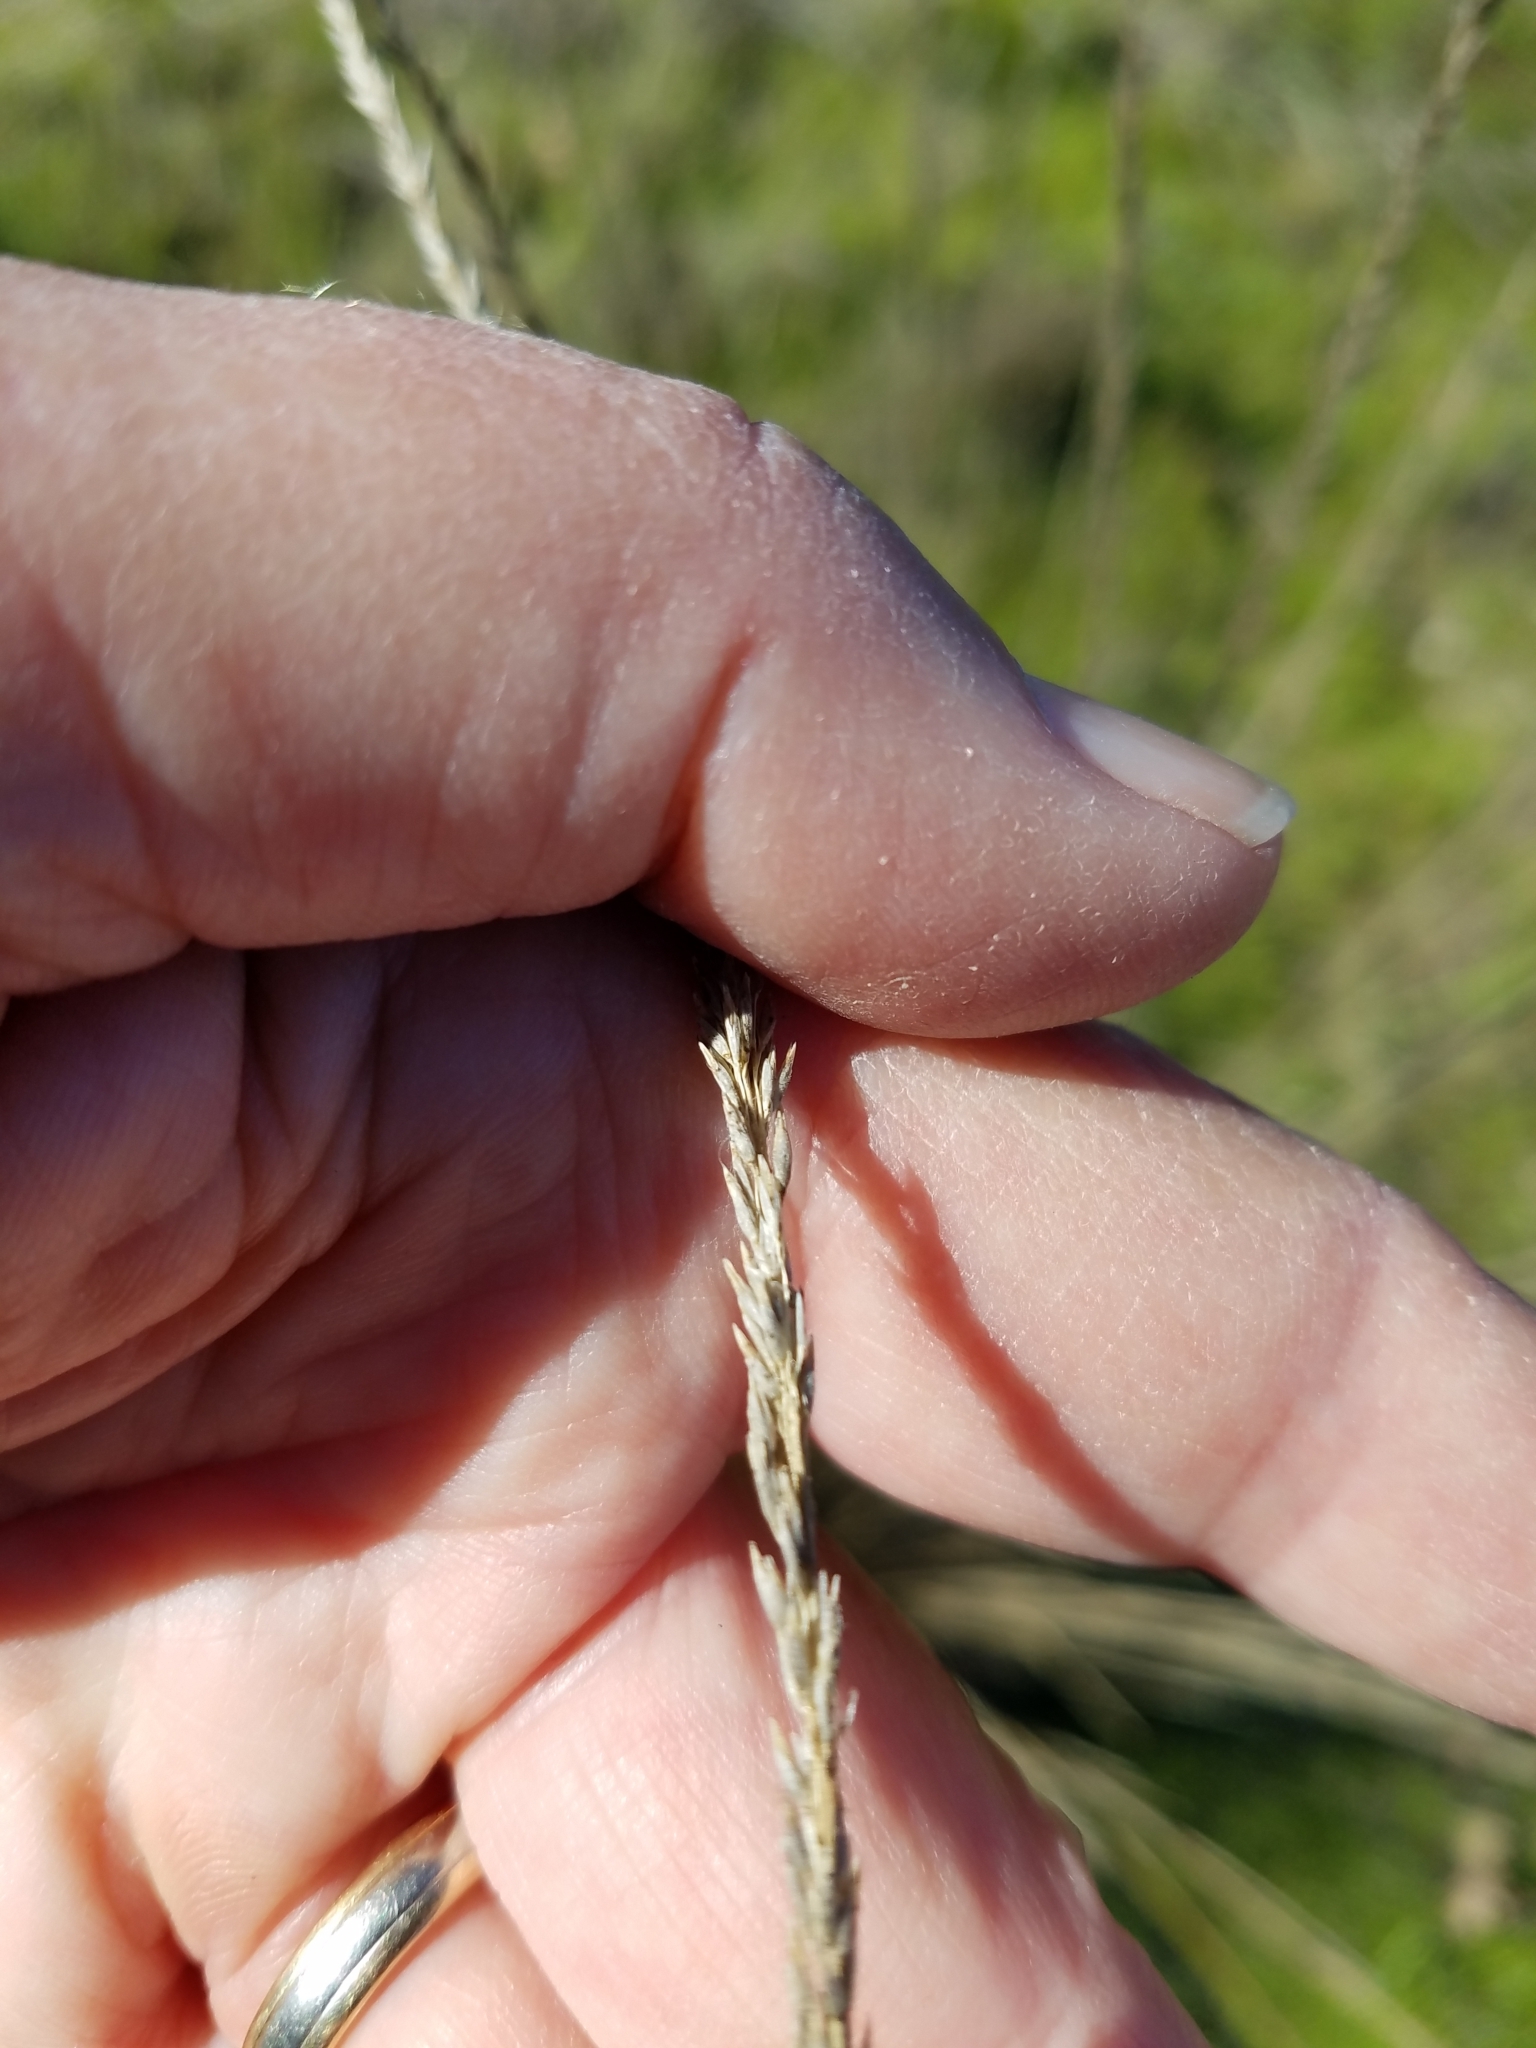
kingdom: Plantae
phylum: Tracheophyta
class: Liliopsida
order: Poales
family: Poaceae
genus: Muhlenbergia
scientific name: Muhlenbergia rigens
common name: Deer grass
